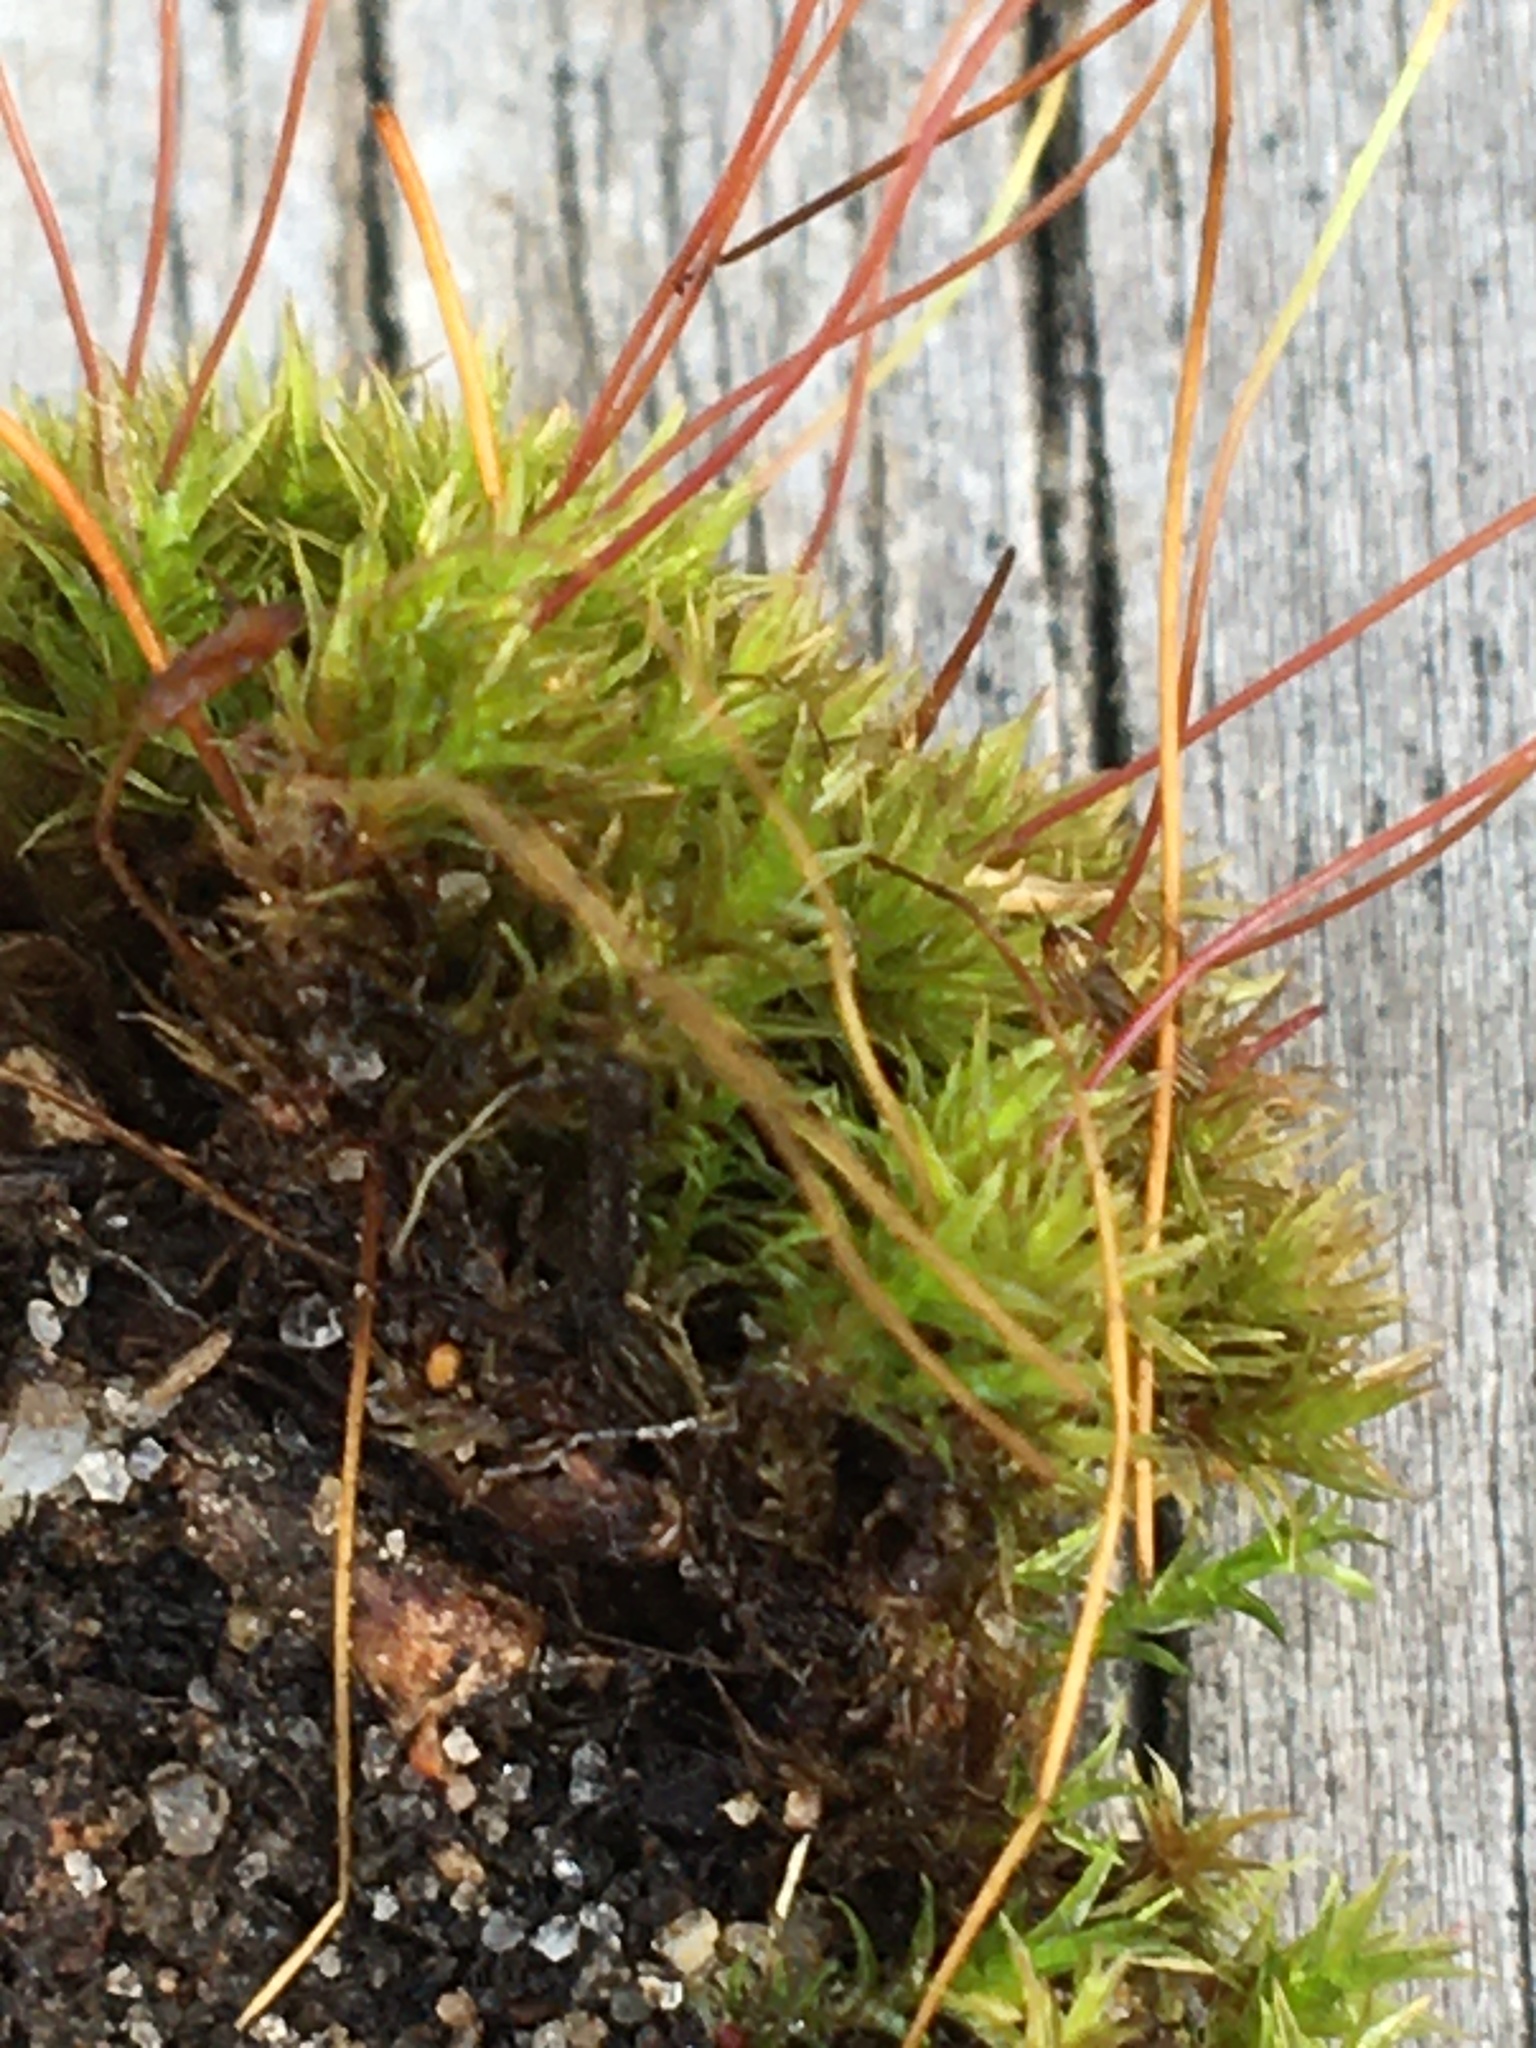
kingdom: Plantae
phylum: Bryophyta
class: Bryopsida
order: Dicranales
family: Ditrichaceae
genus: Ceratodon
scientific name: Ceratodon purpureus
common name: Redshank
